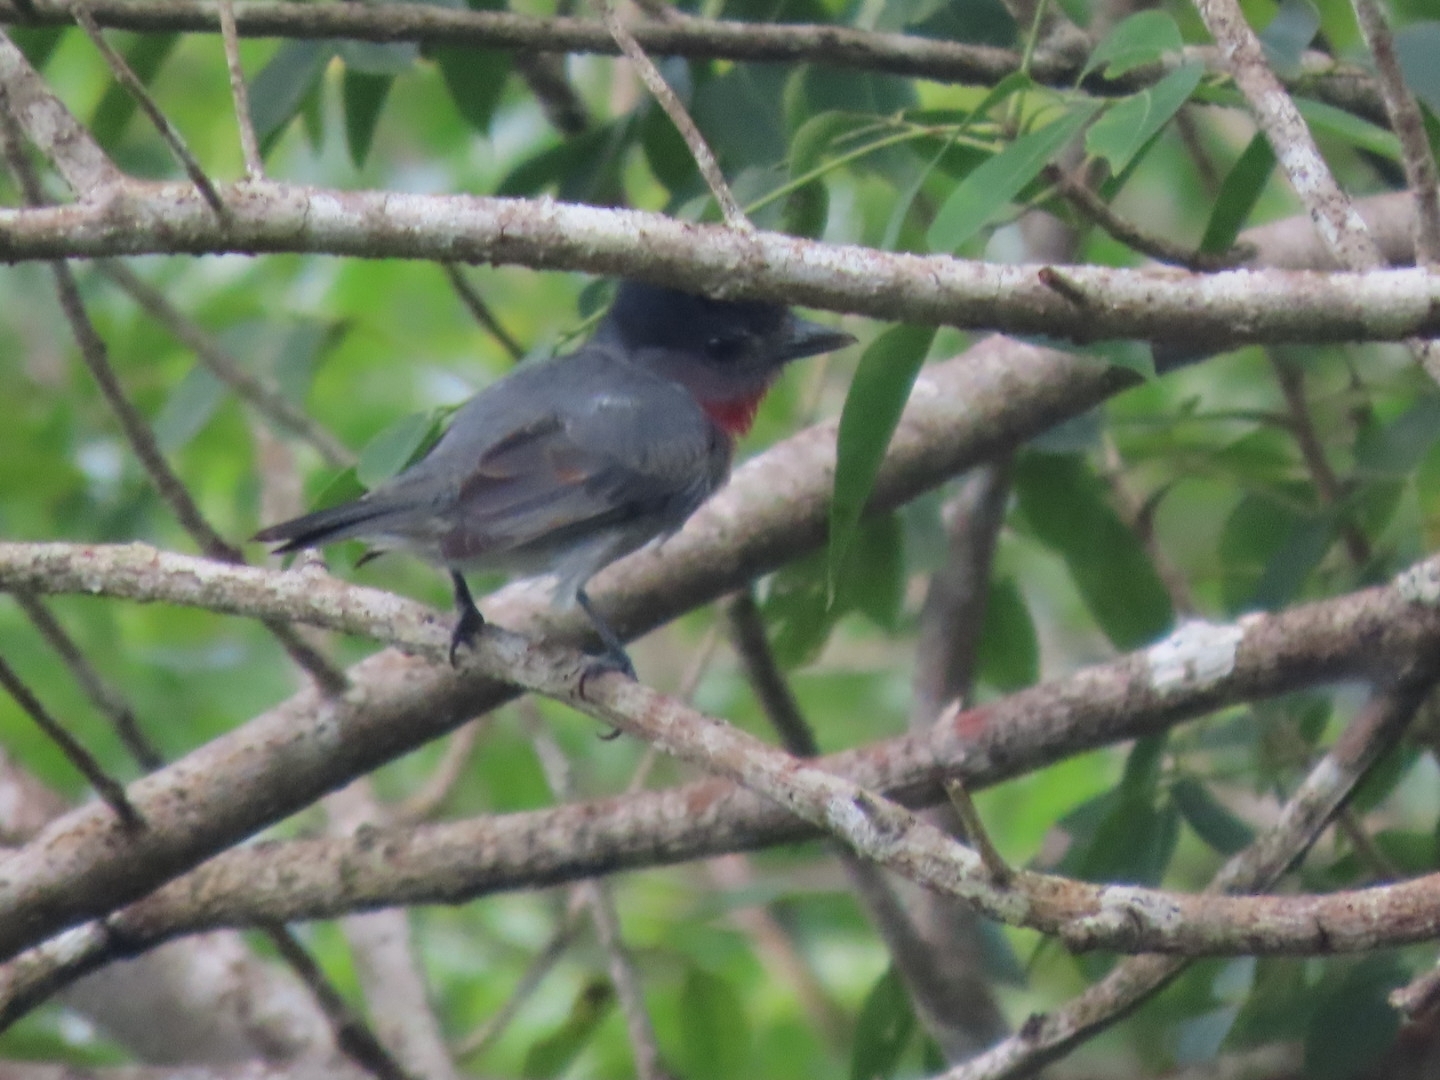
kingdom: Animalia
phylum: Chordata
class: Aves
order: Passeriformes
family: Cotingidae
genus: Pachyramphus
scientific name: Pachyramphus aglaiae
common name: Rose-throated becard
